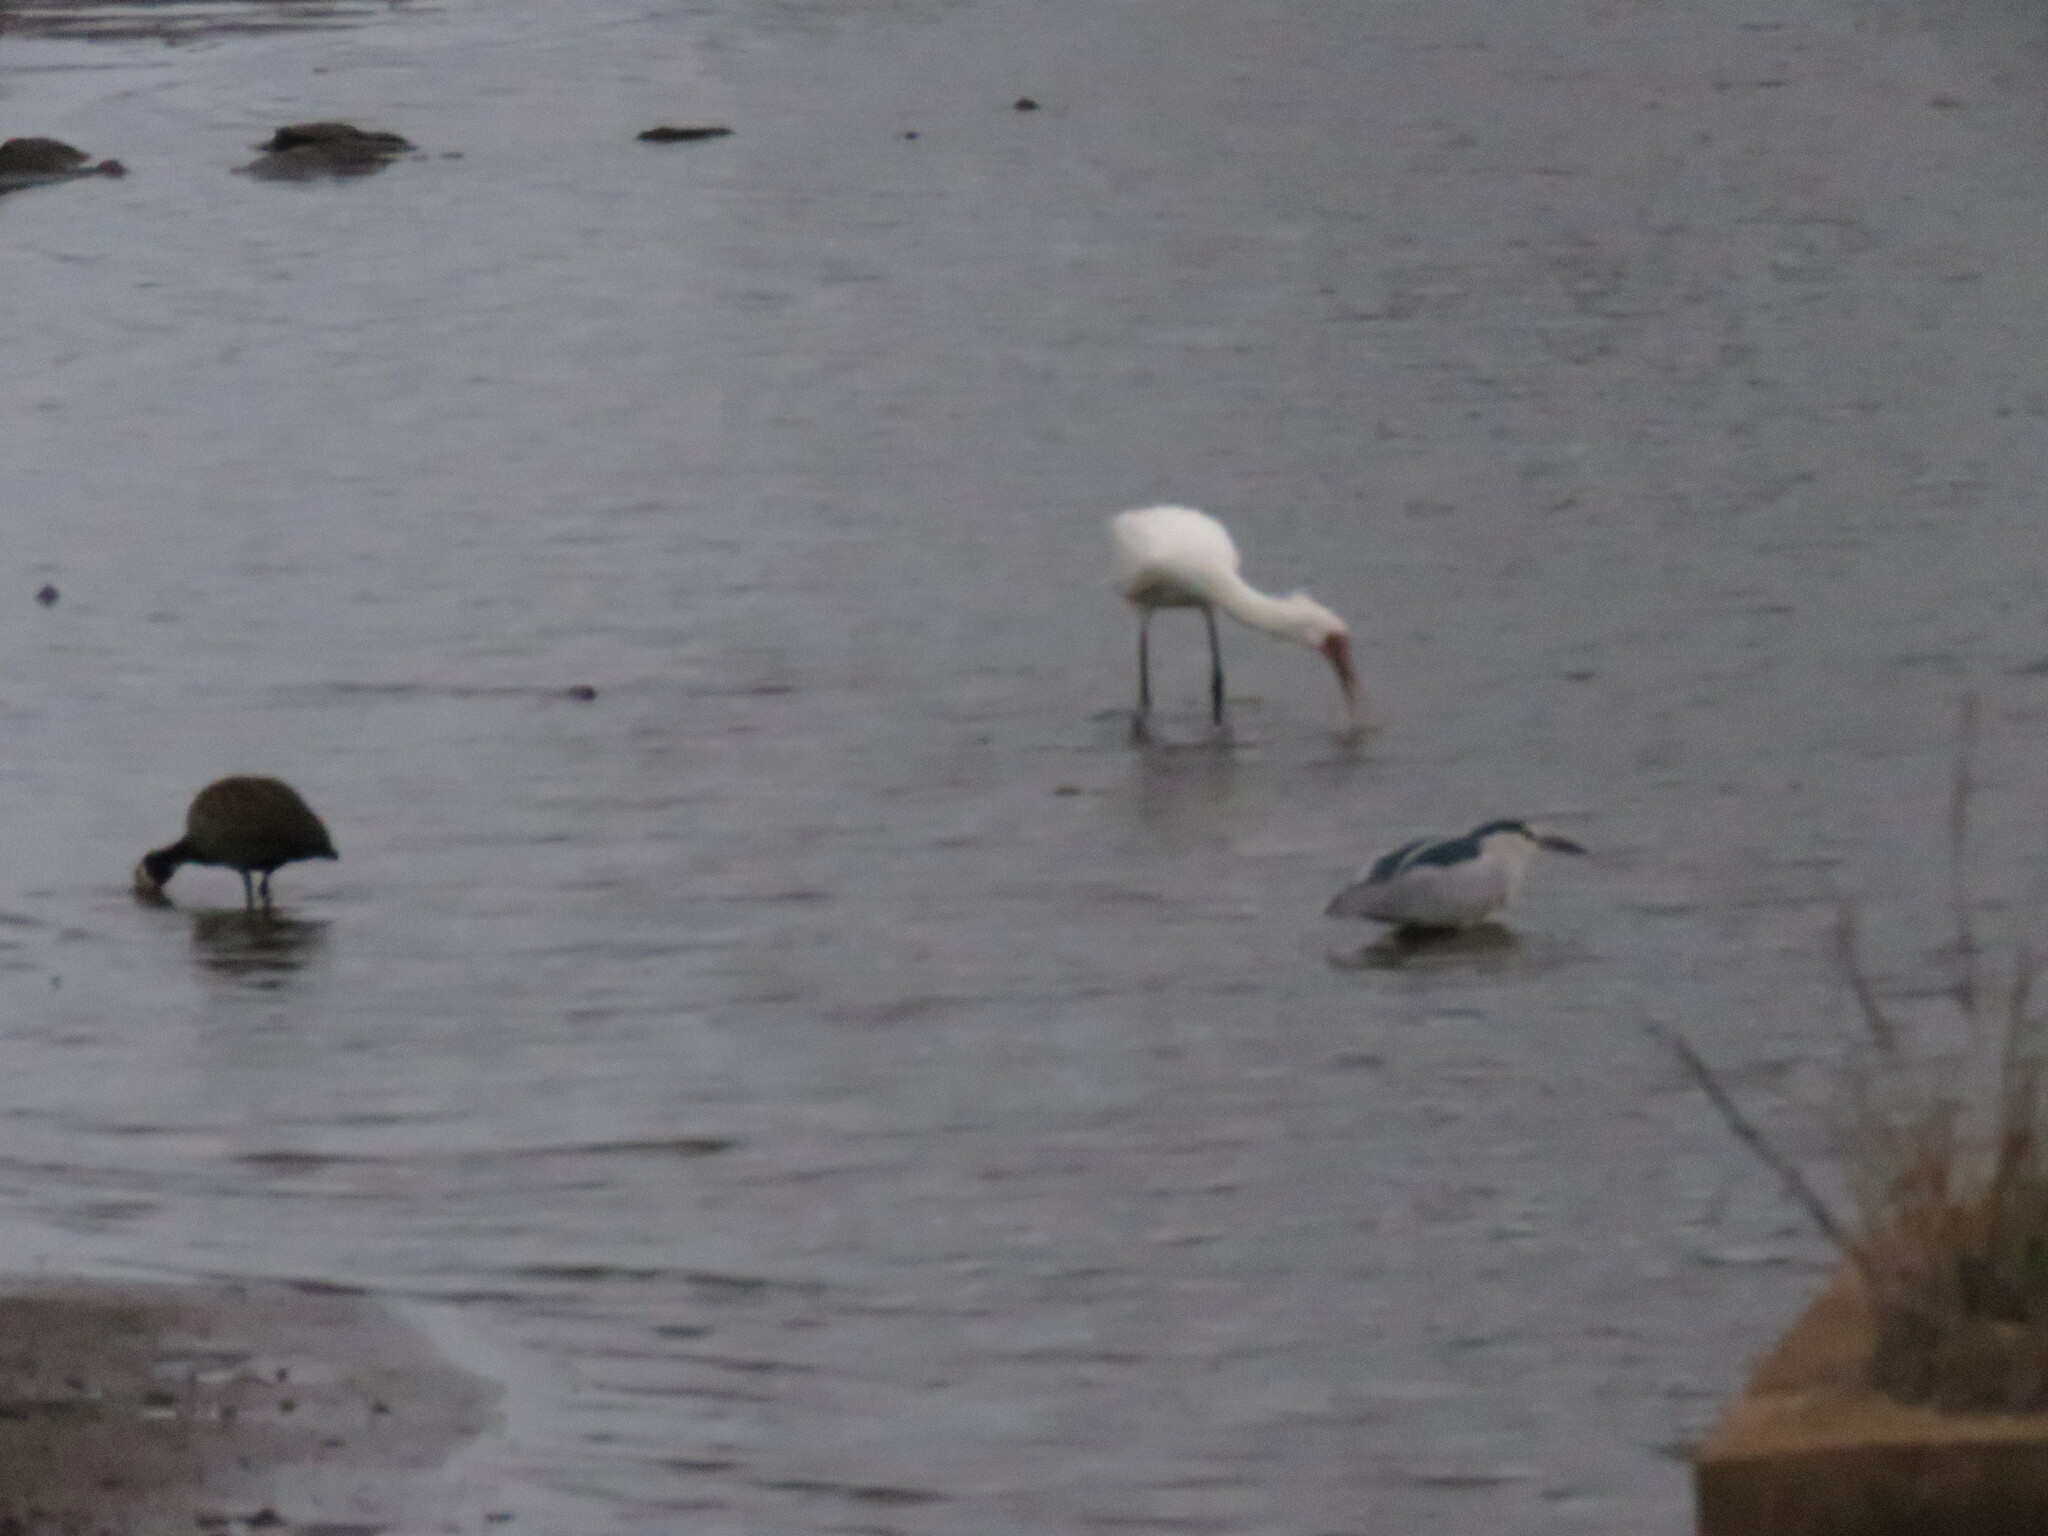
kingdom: Animalia
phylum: Chordata
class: Aves
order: Pelecaniformes
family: Ardeidae
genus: Nycticorax
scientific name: Nycticorax nycticorax
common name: Black-crowned night heron
